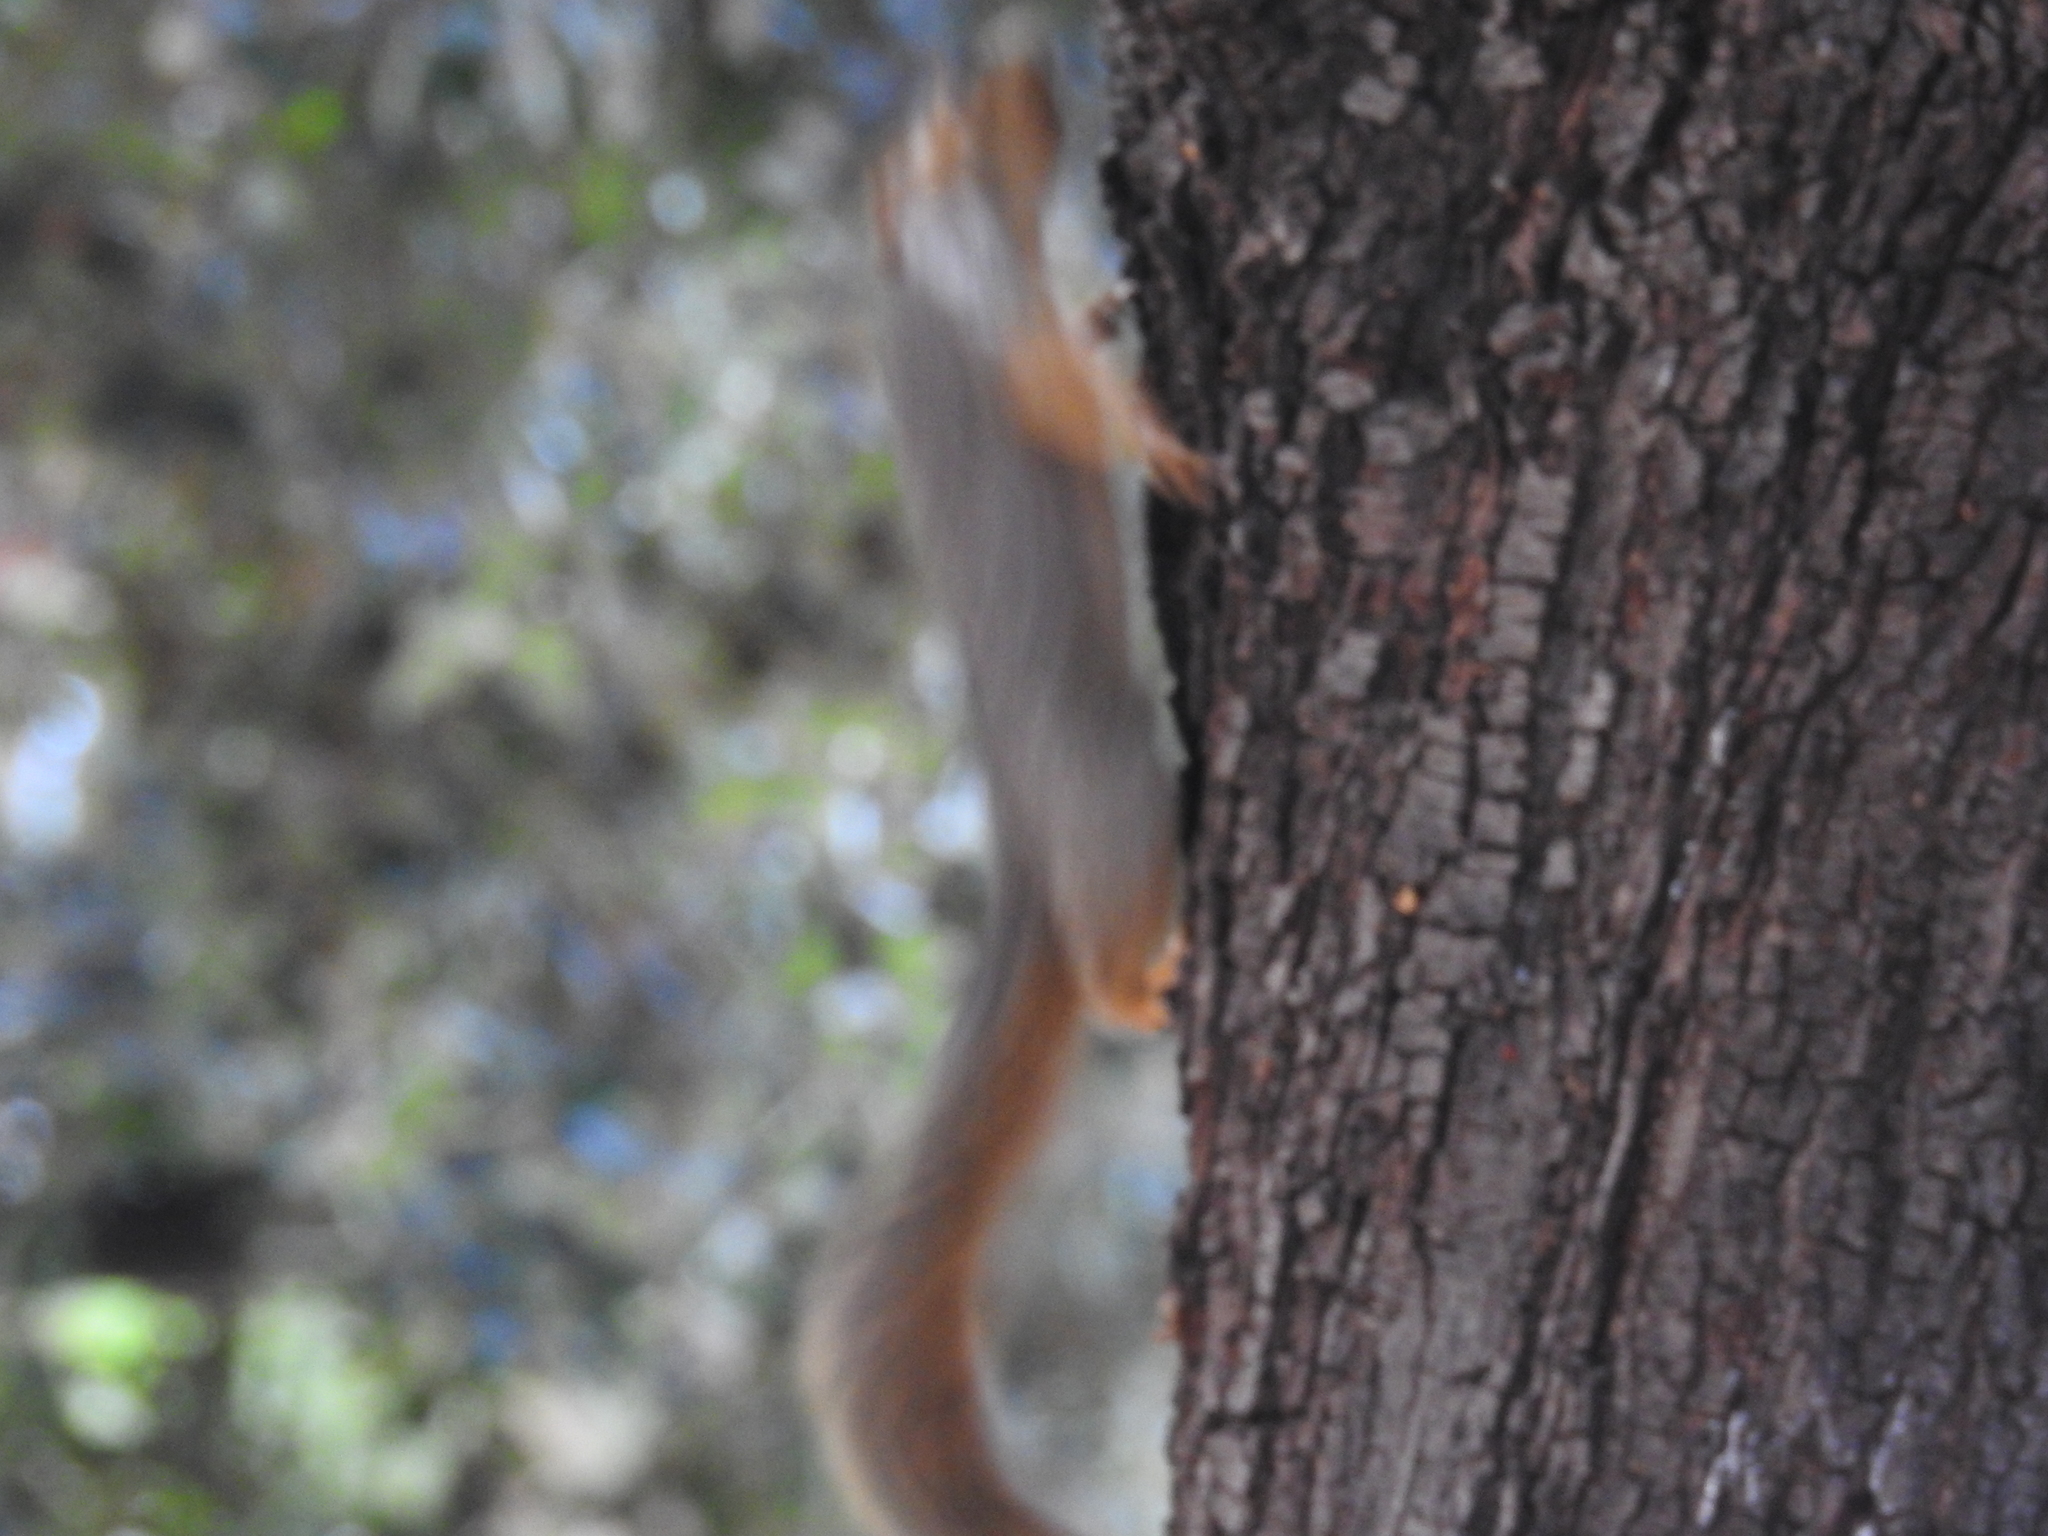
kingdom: Animalia
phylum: Chordata
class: Mammalia
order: Rodentia
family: Sciuridae
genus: Sciurus
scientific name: Sciurus niger
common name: Fox squirrel
